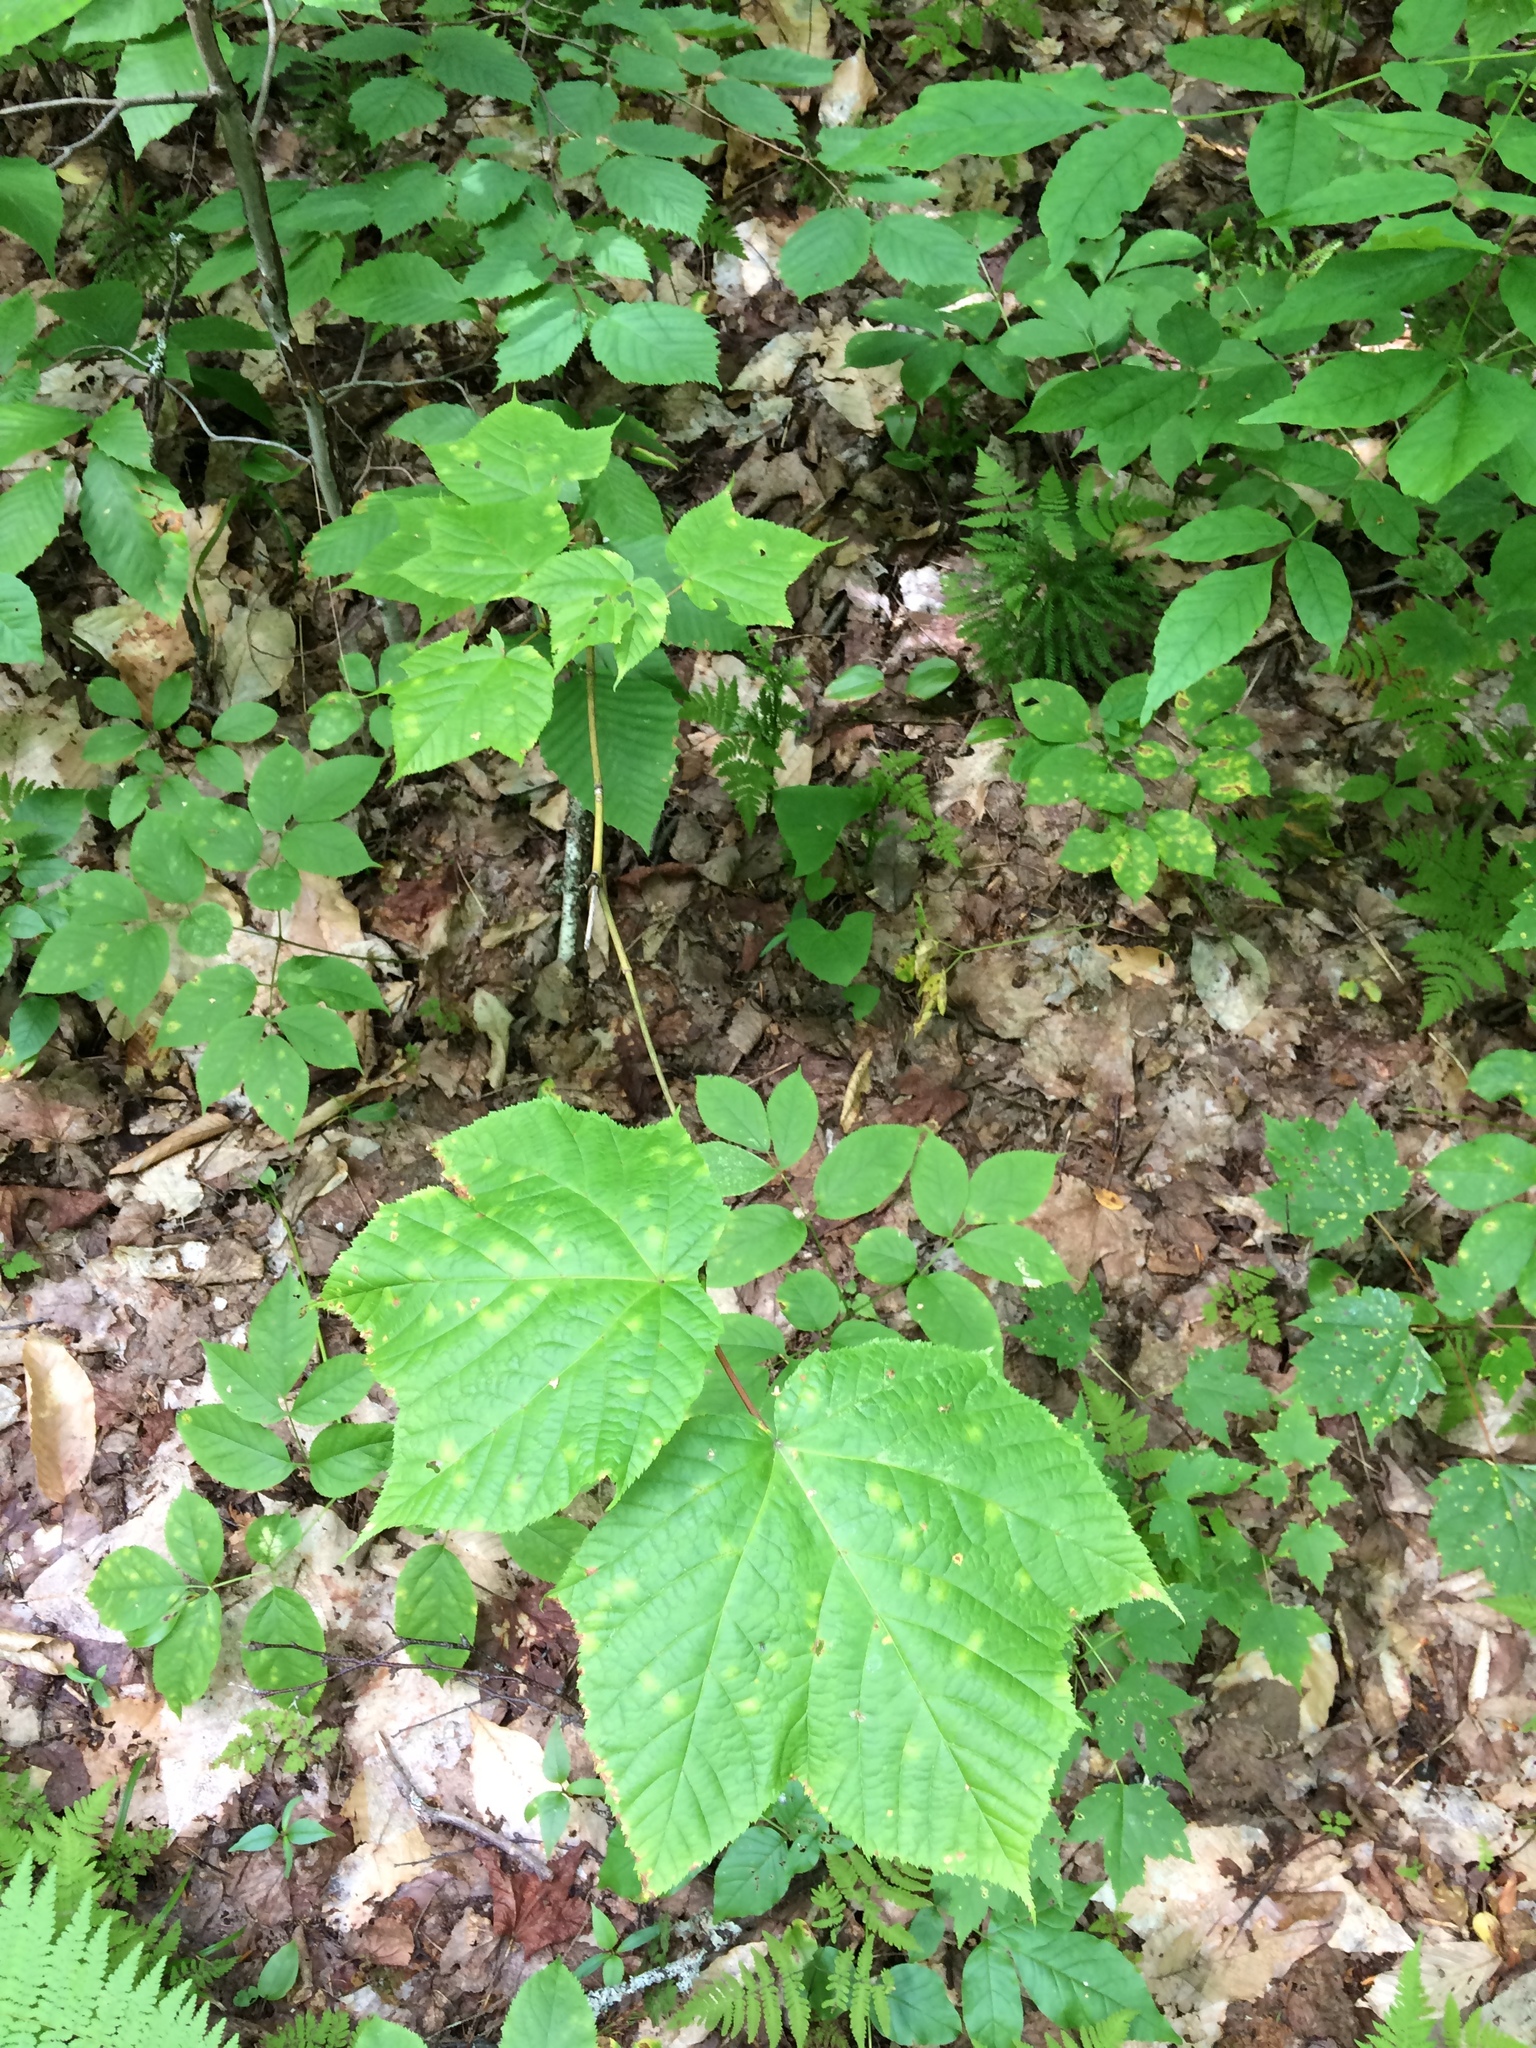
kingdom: Plantae
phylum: Tracheophyta
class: Magnoliopsida
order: Sapindales
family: Sapindaceae
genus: Acer
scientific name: Acer pensylvanicum
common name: Moosewood
